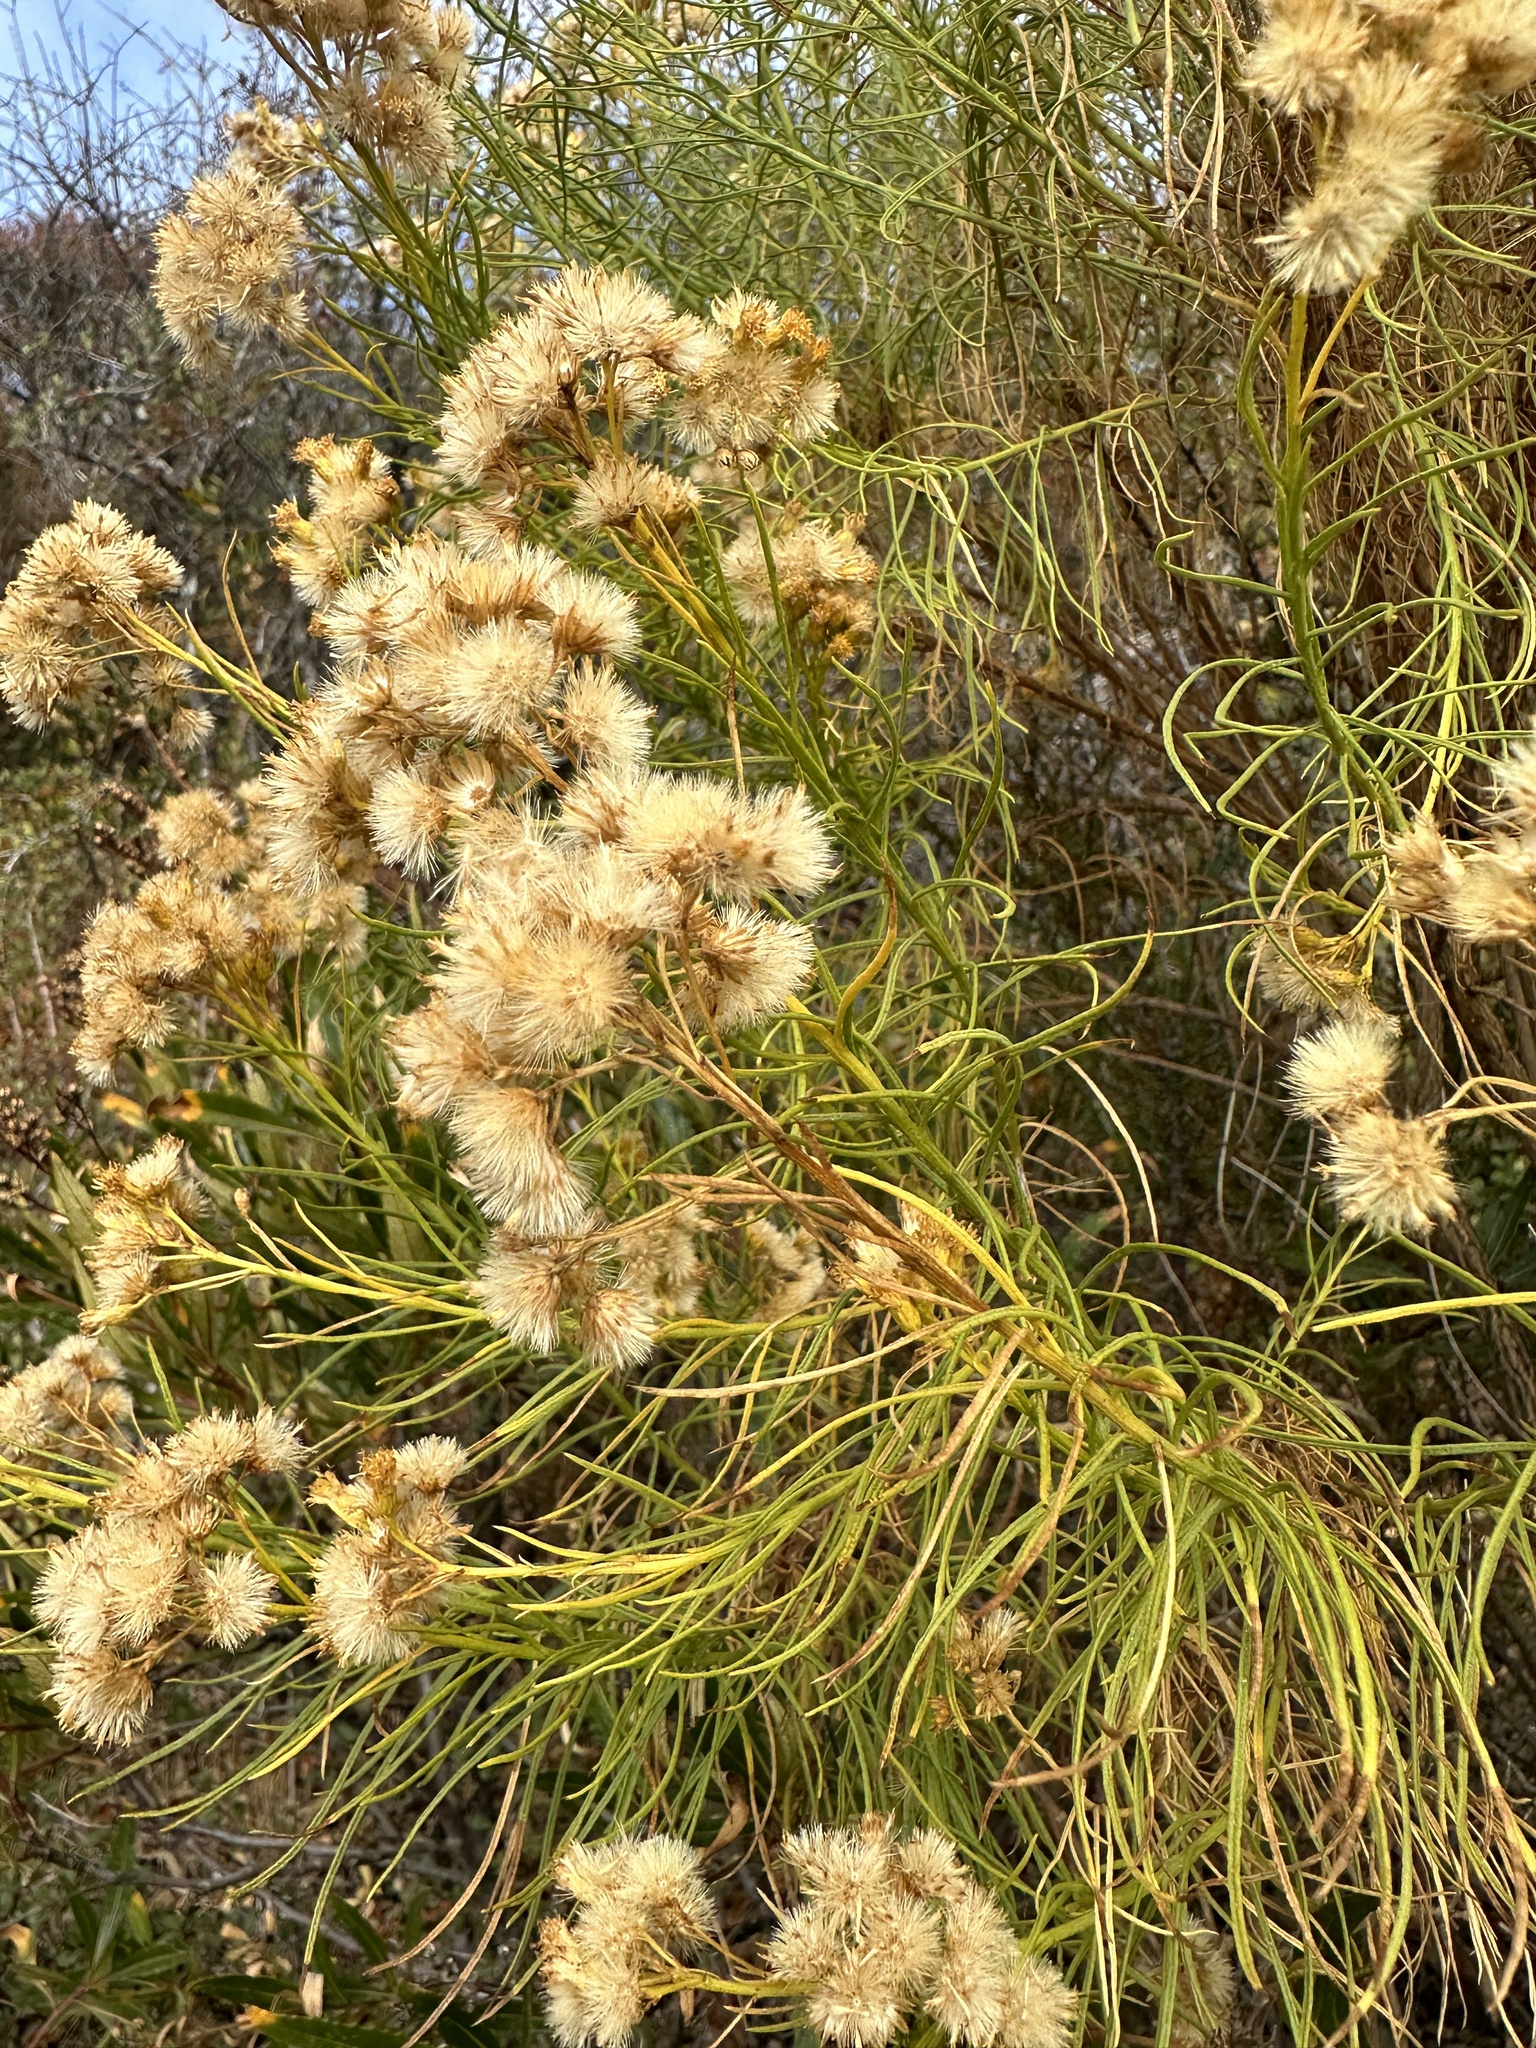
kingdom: Plantae
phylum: Tracheophyta
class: Magnoliopsida
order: Asterales
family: Asteraceae
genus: Ericameria
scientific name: Ericameria arborescens
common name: Goldenfleece
